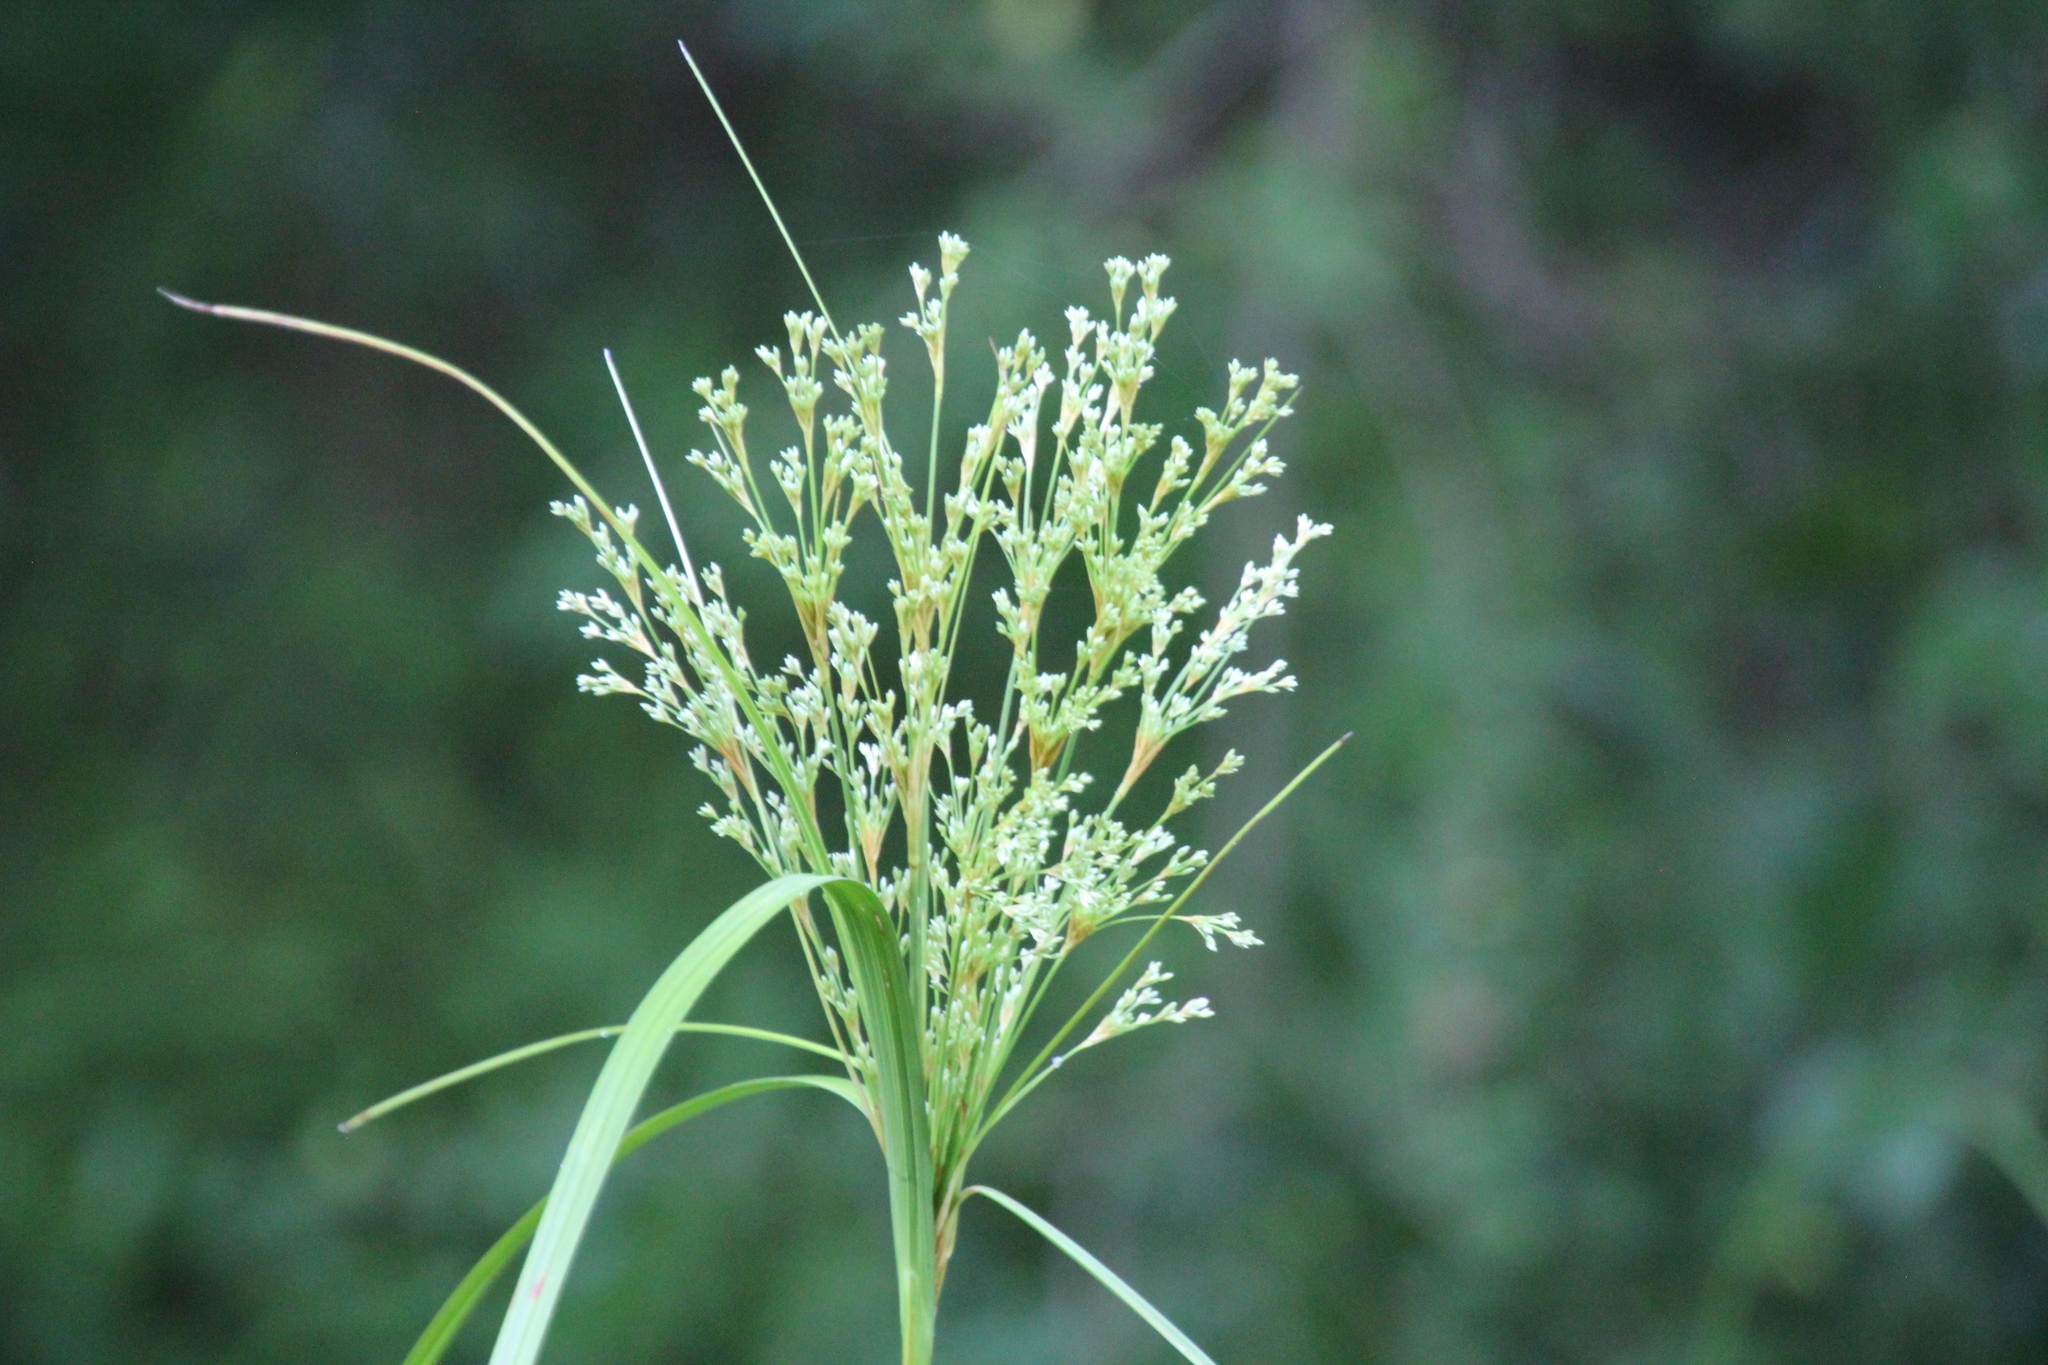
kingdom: Plantae
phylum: Tracheophyta
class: Liliopsida
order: Poales
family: Cyperaceae
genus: Scirpus
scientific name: Scirpus cyperinus
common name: Black-sheathed bulrush
